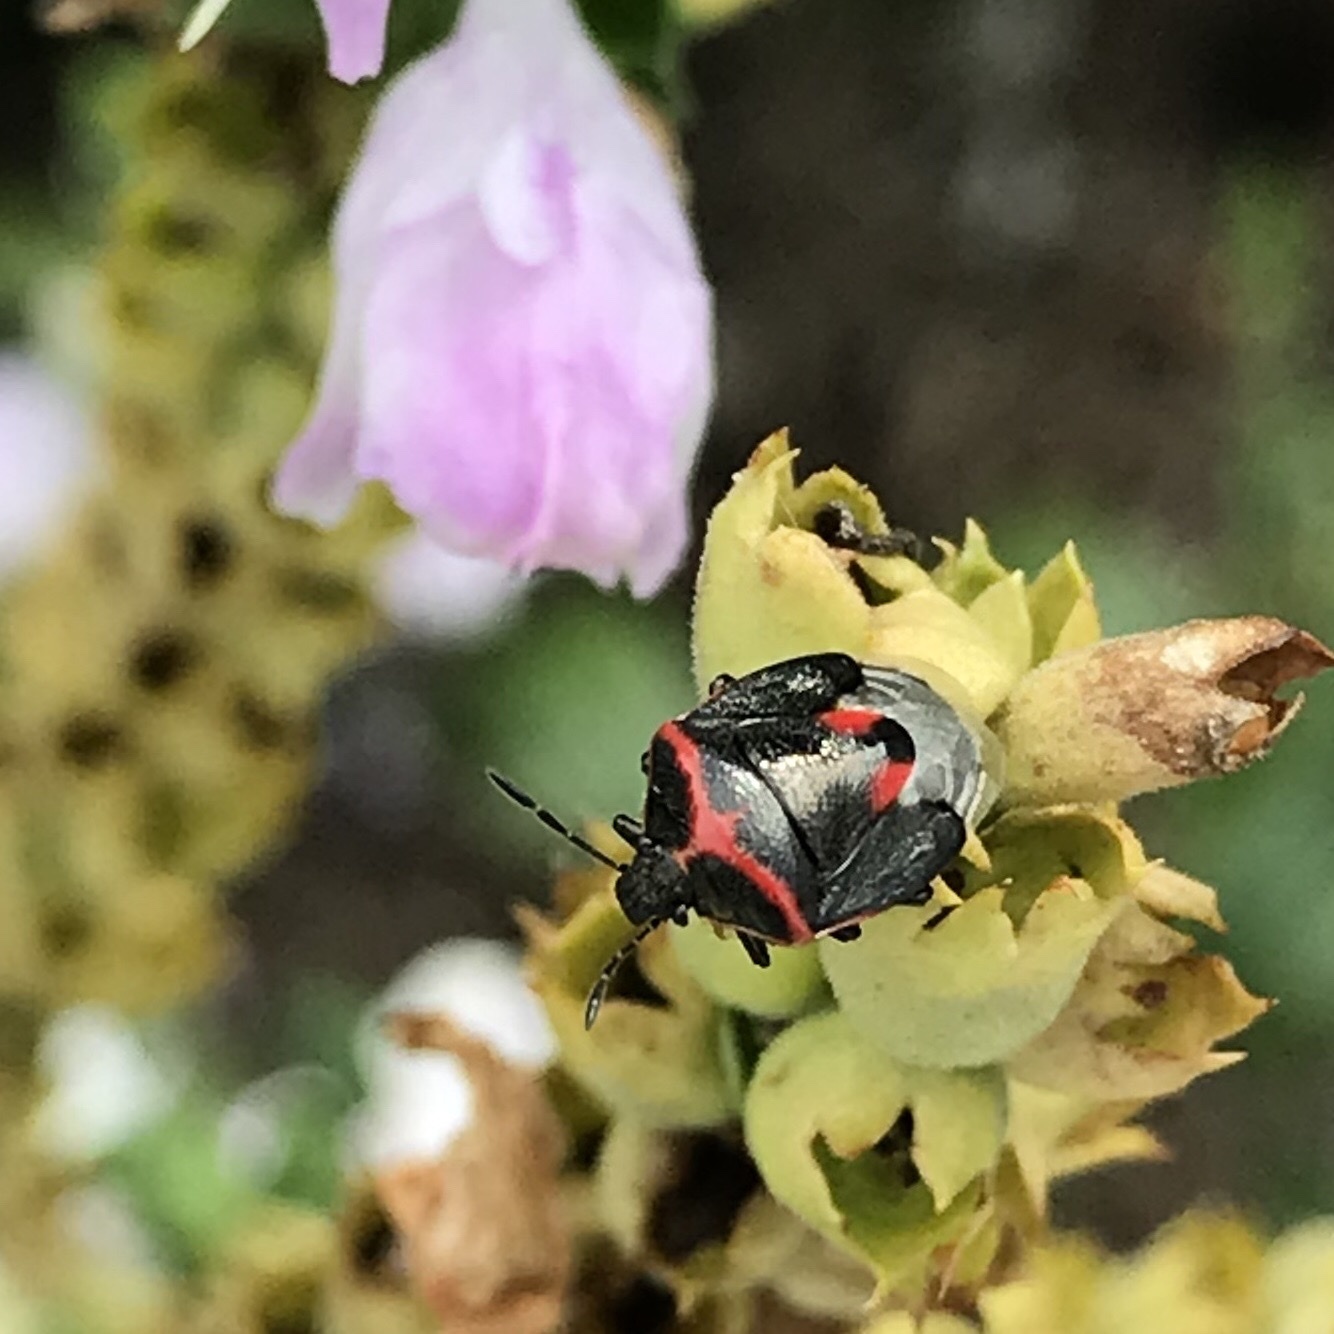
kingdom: Animalia
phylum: Arthropoda
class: Insecta
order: Hemiptera
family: Pentatomidae
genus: Cosmopepla
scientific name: Cosmopepla lintneriana
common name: Twice-stabbed stink bug
